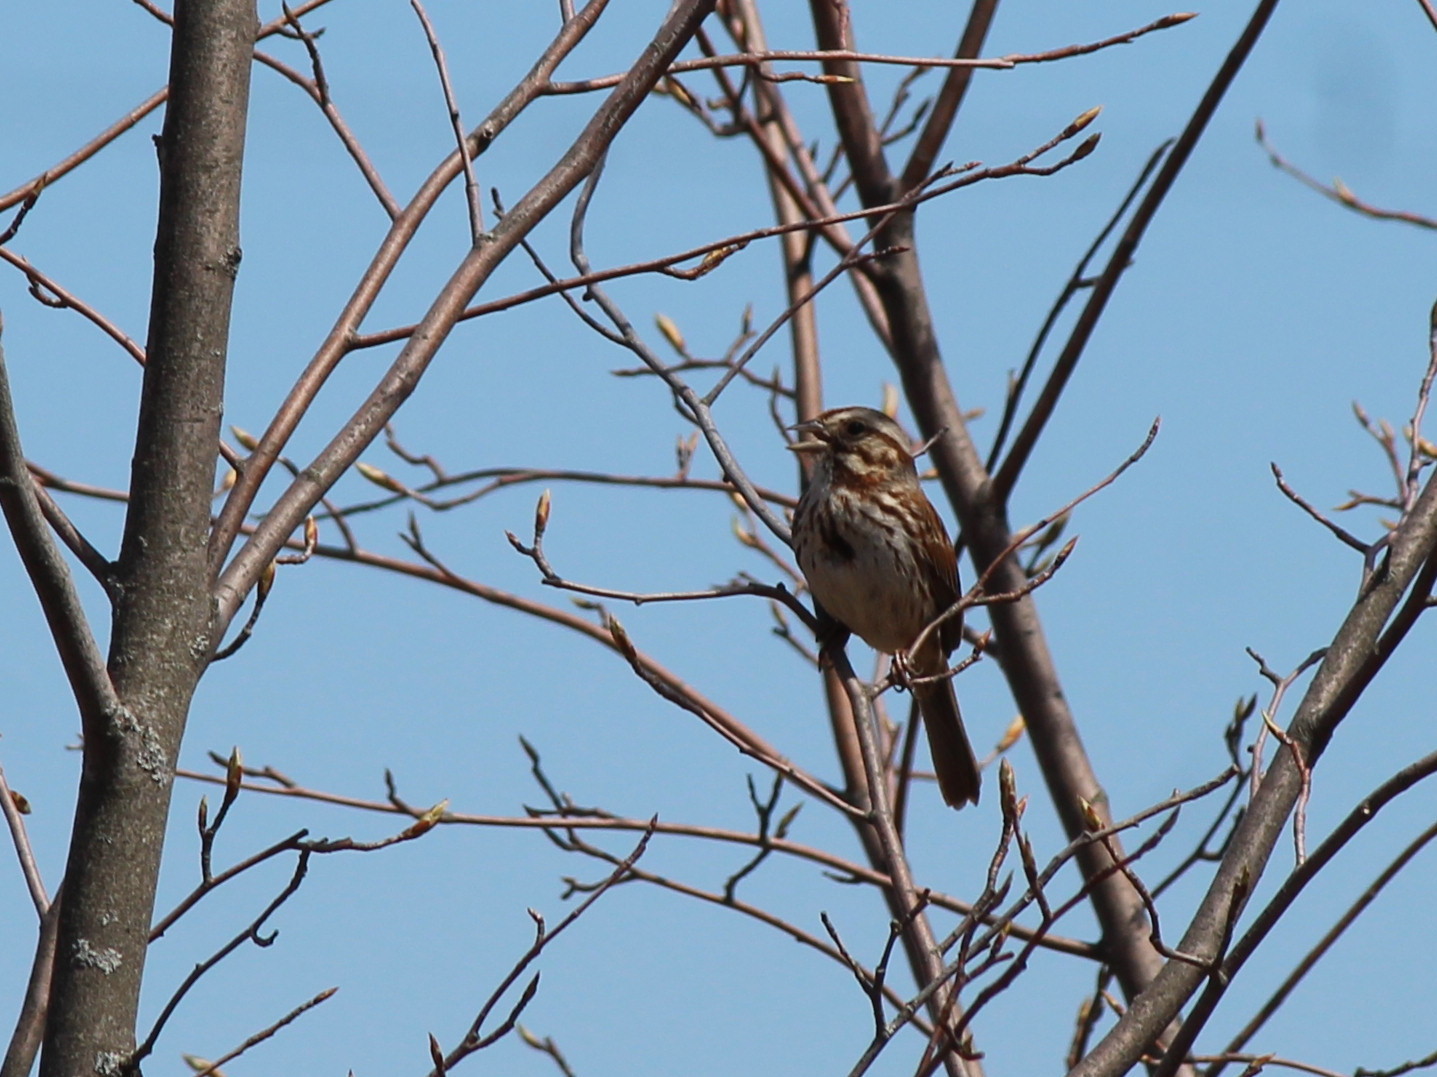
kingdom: Animalia
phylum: Chordata
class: Aves
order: Passeriformes
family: Passerellidae
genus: Melospiza
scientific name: Melospiza melodia
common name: Song sparrow
